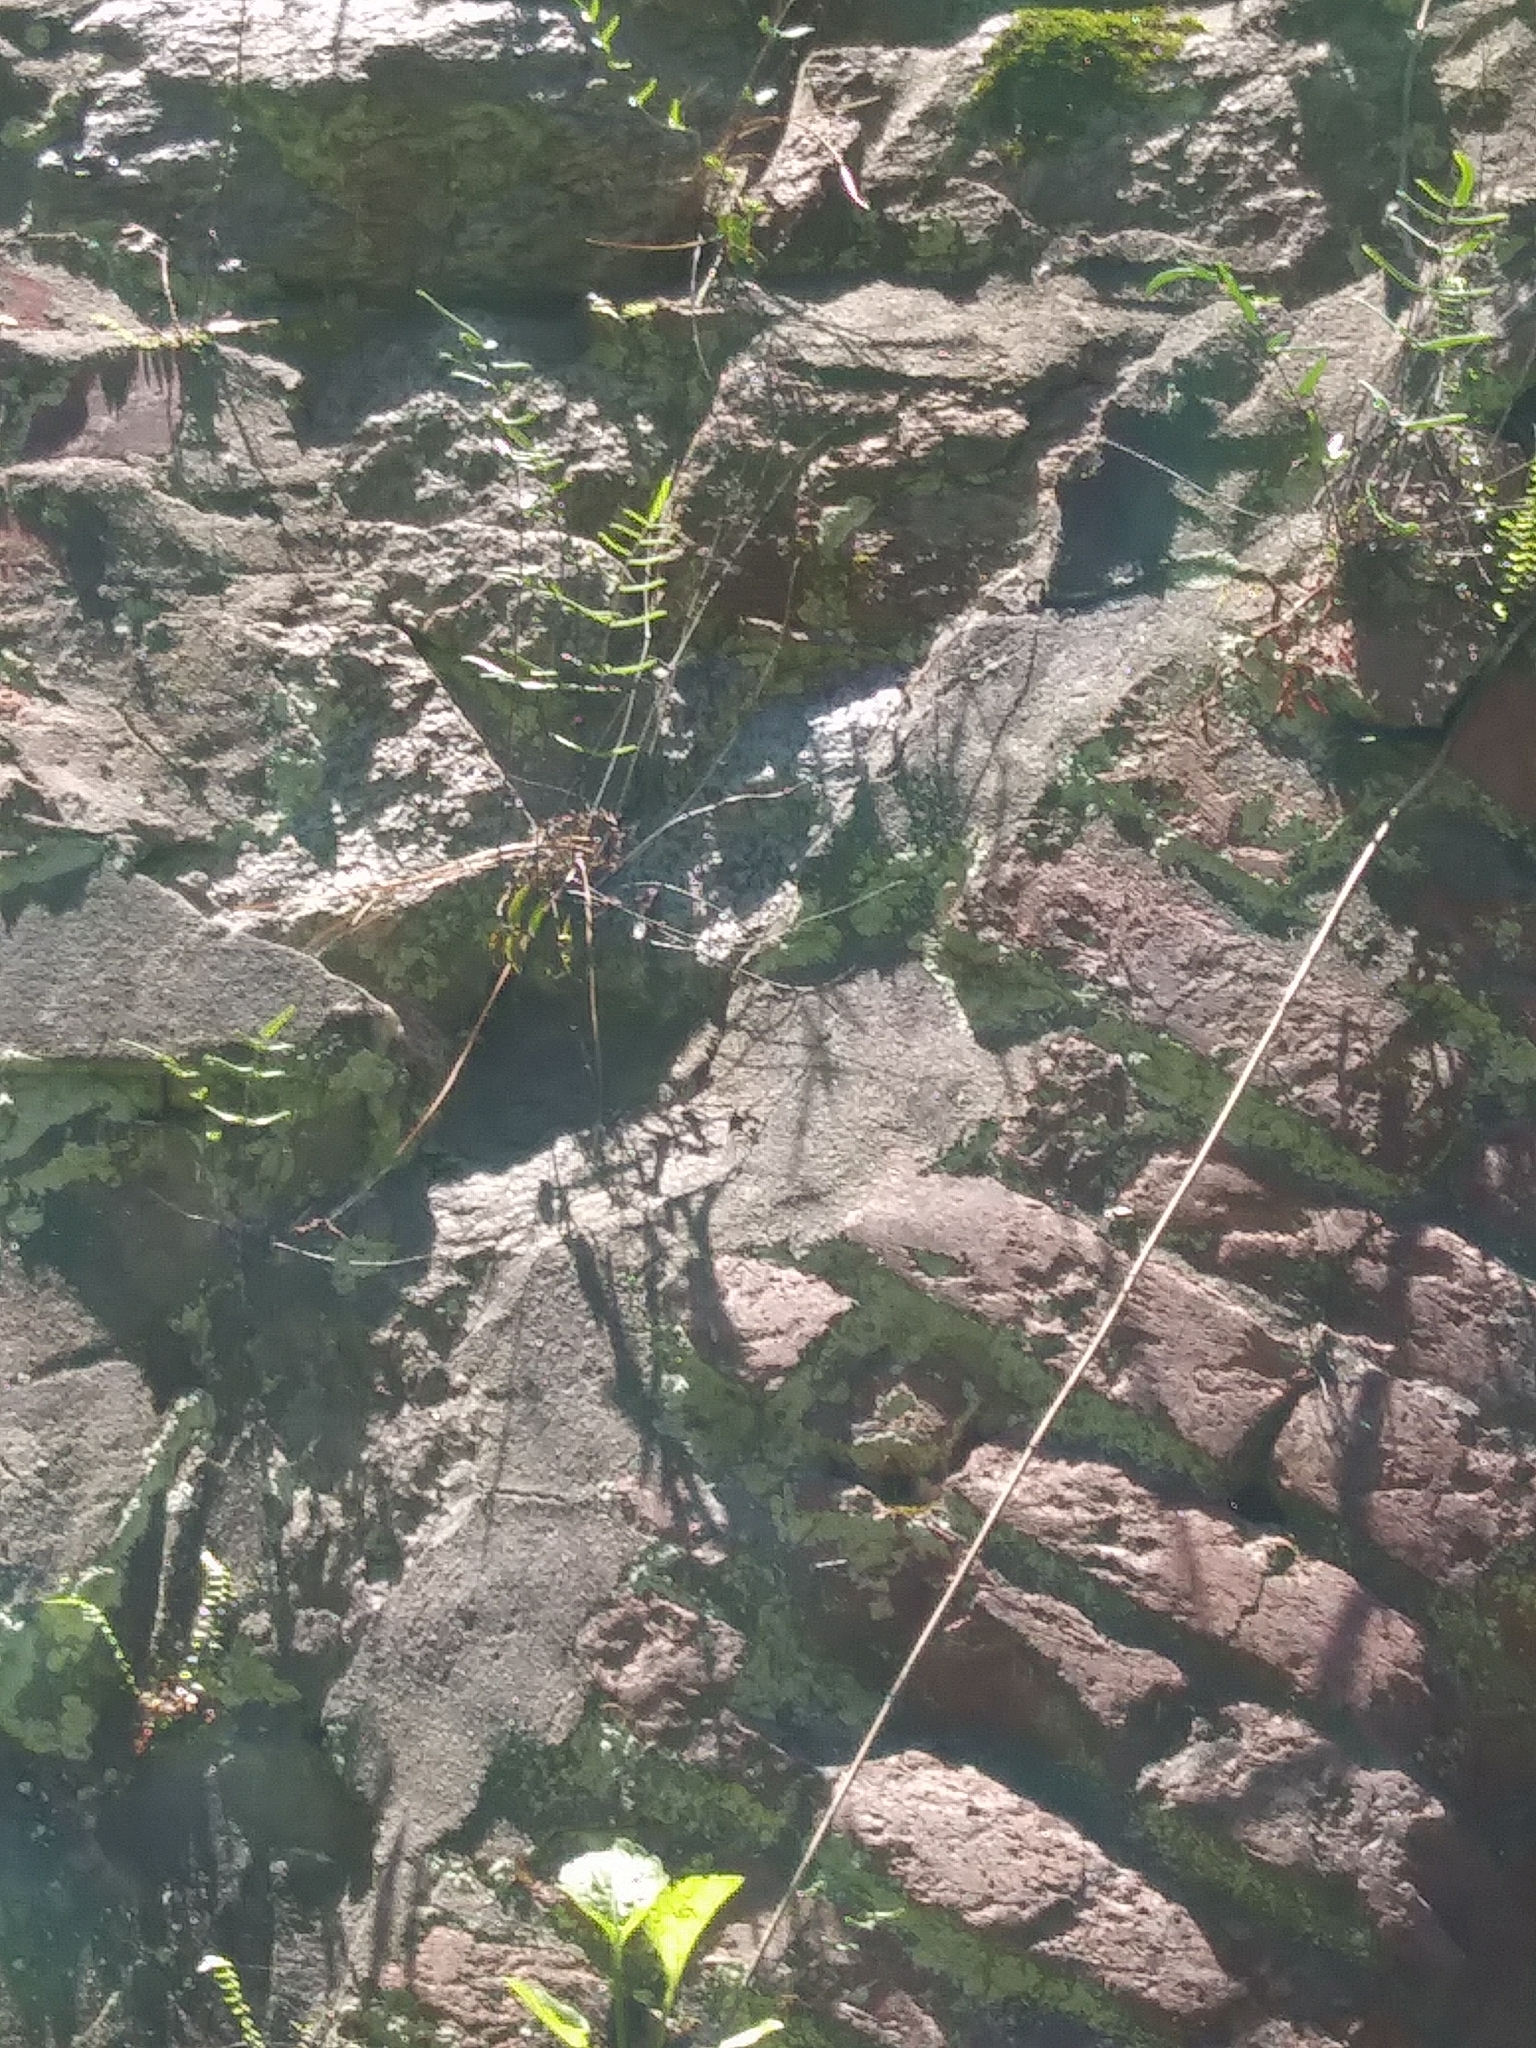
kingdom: Plantae
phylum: Tracheophyta
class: Polypodiopsida
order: Polypodiales
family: Pteridaceae
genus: Pellaea
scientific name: Pellaea atropurpurea
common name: Hairy cliffbrake
